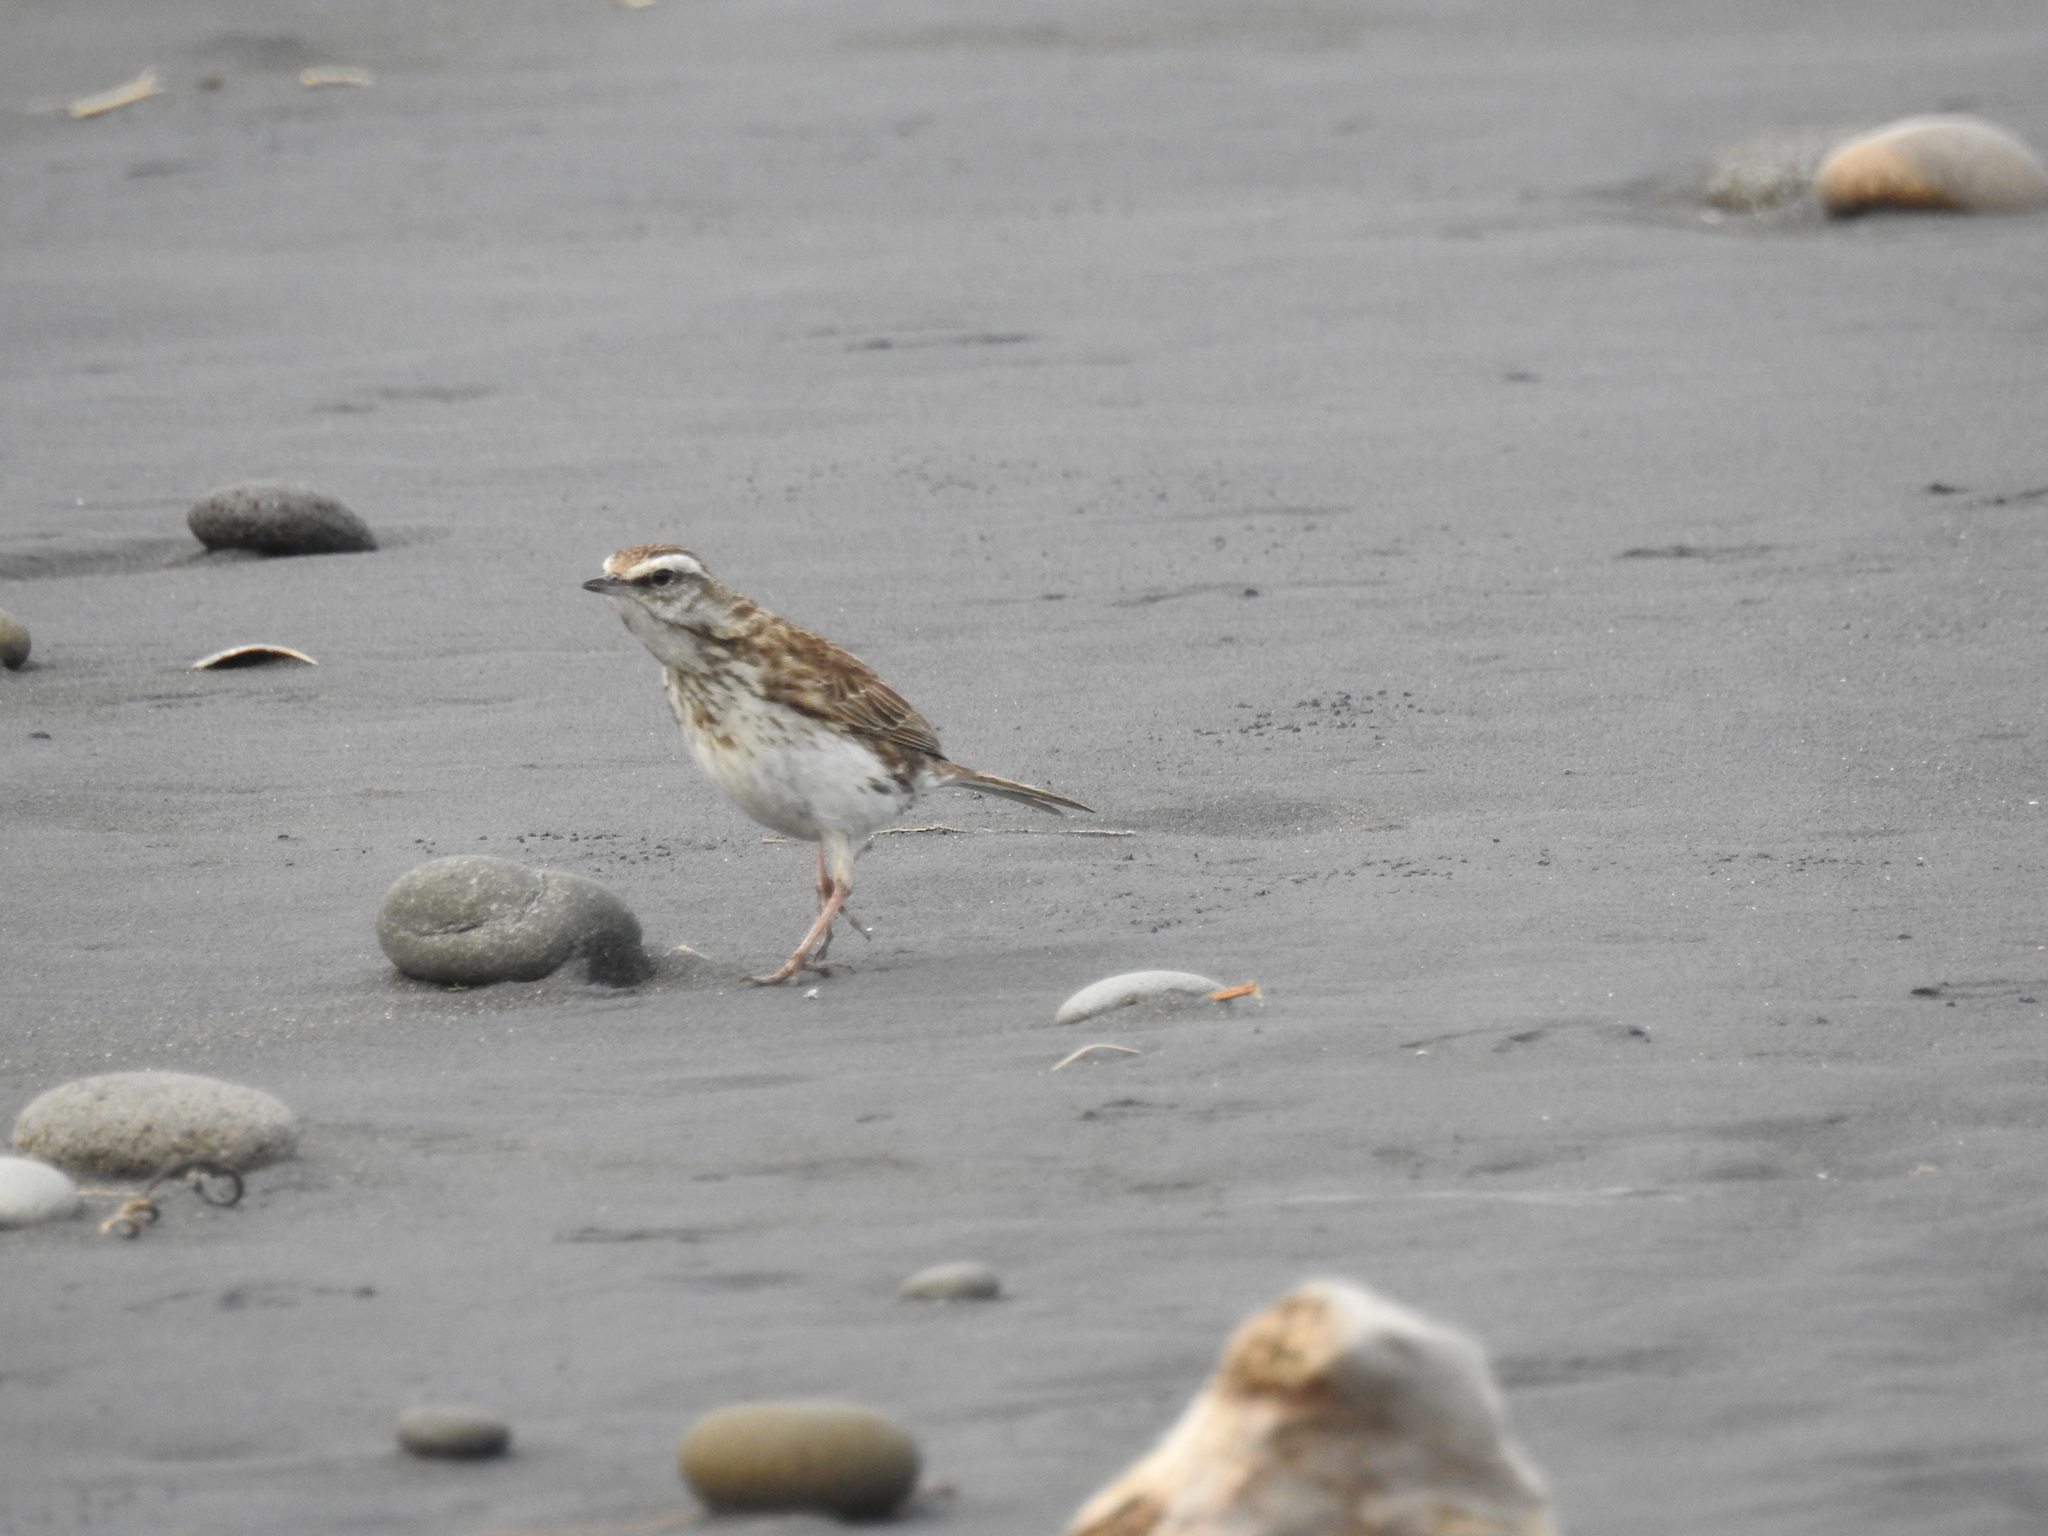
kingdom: Animalia
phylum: Chordata
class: Aves
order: Passeriformes
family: Motacillidae
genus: Anthus
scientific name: Anthus novaeseelandiae
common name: New zealand pipit
